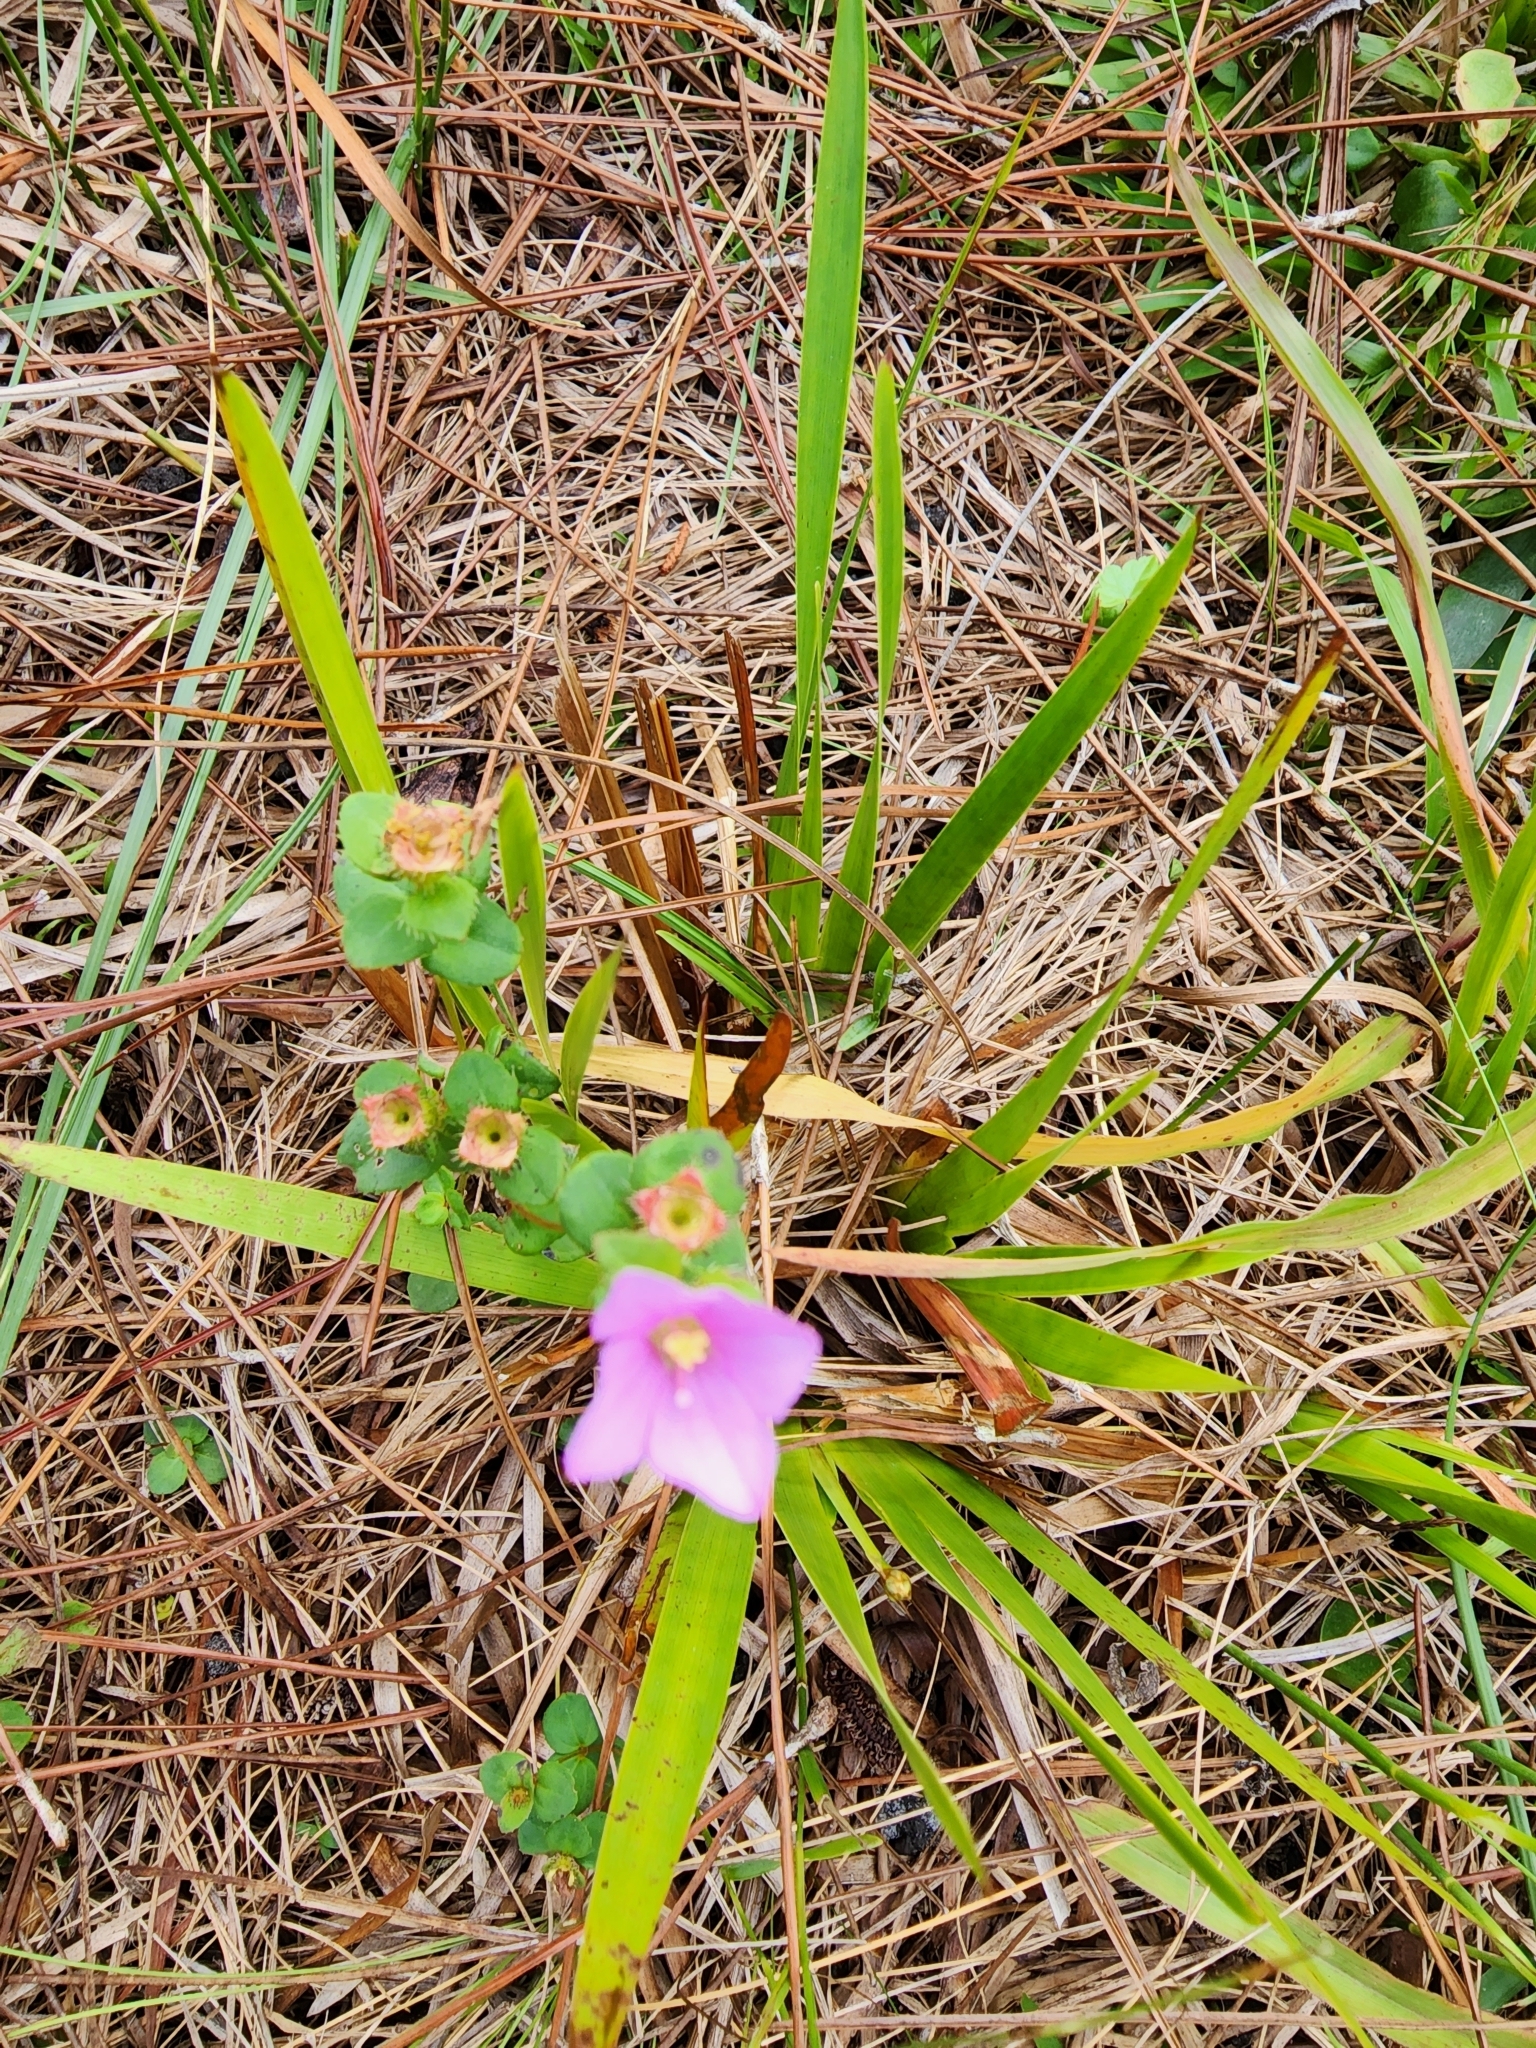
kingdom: Plantae
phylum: Tracheophyta
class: Magnoliopsida
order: Myrtales
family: Melastomataceae
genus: Rhexia
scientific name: Rhexia nuttallii
